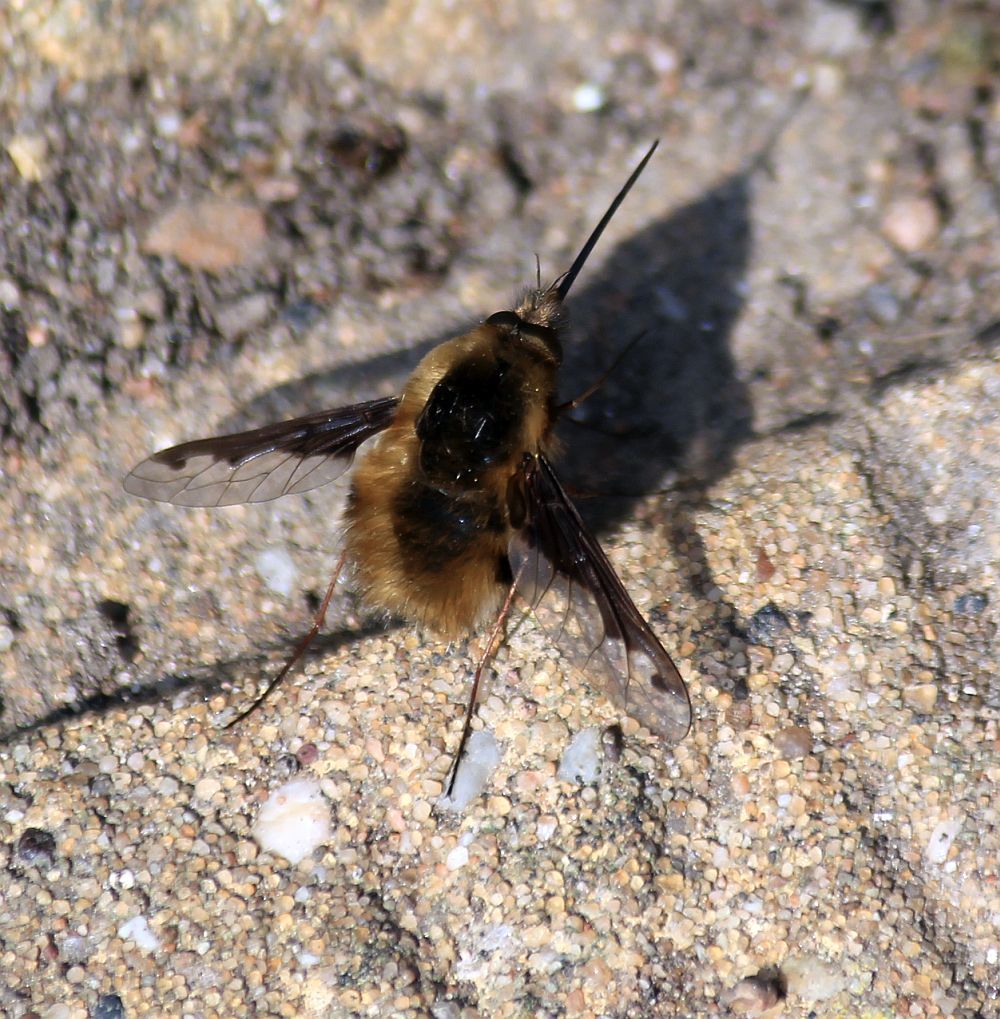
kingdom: Animalia
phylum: Arthropoda
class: Insecta
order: Diptera
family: Bombyliidae
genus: Bombylius
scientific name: Bombylius major
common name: Bee fly
